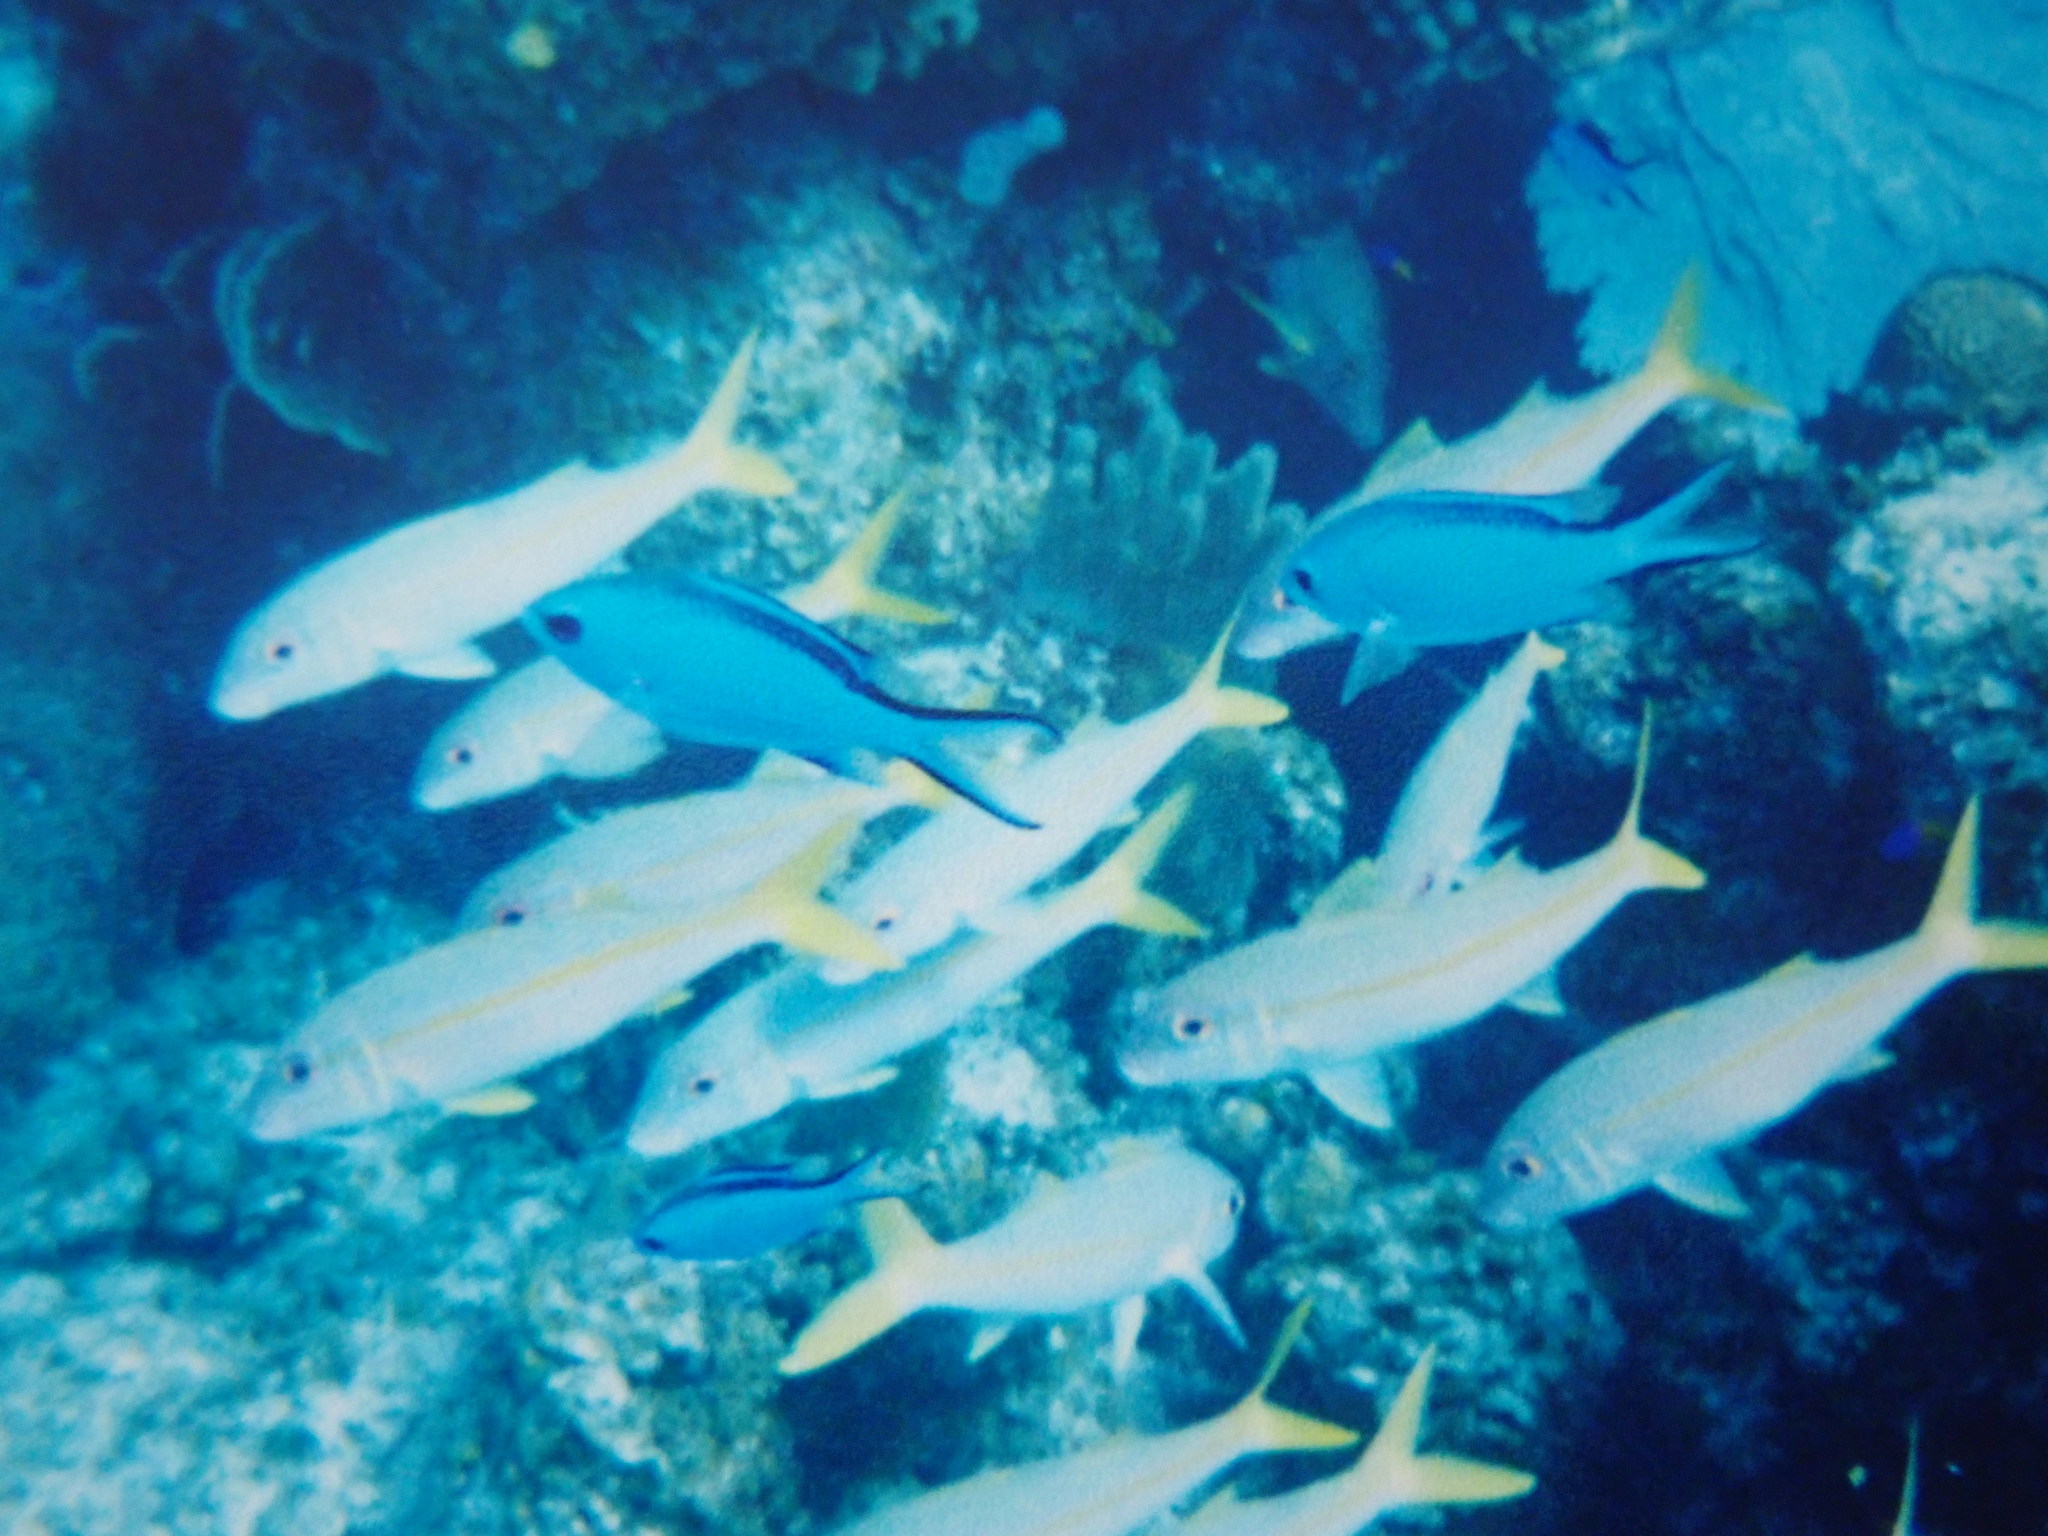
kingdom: Animalia
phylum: Chordata
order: Perciformes
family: Pomacentridae
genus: Chromis
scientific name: Chromis cyanea
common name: Blue chromis
